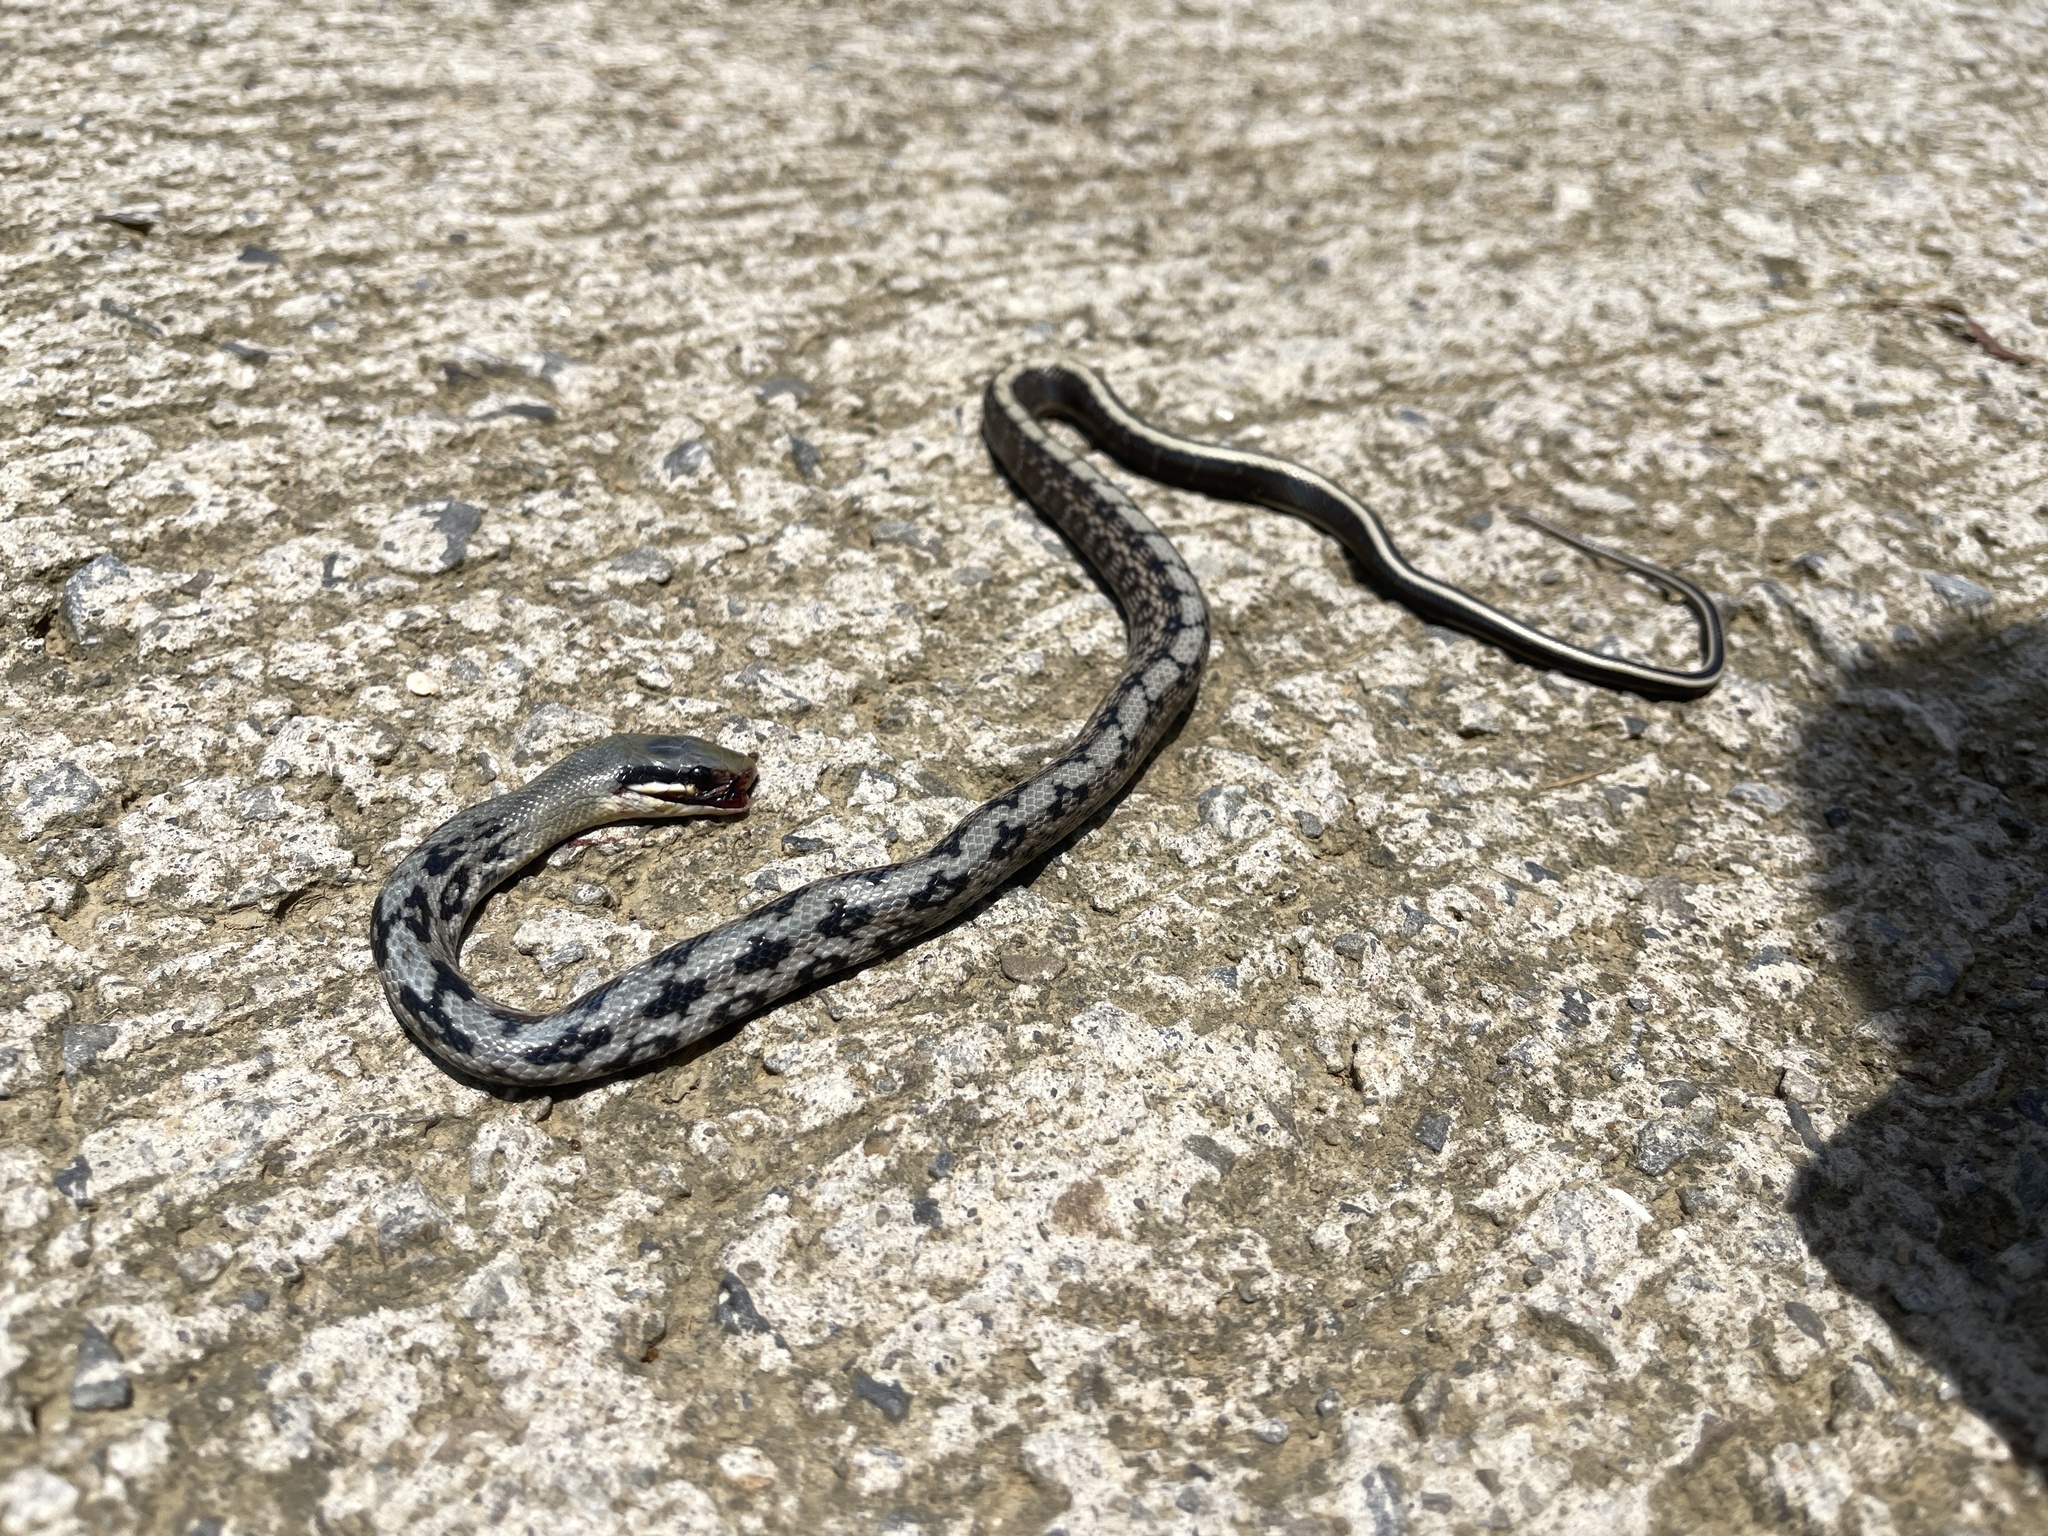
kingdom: Animalia
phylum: Chordata
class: Squamata
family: Colubridae
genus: Elaphe
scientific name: Elaphe taeniura
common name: Beauty snake
